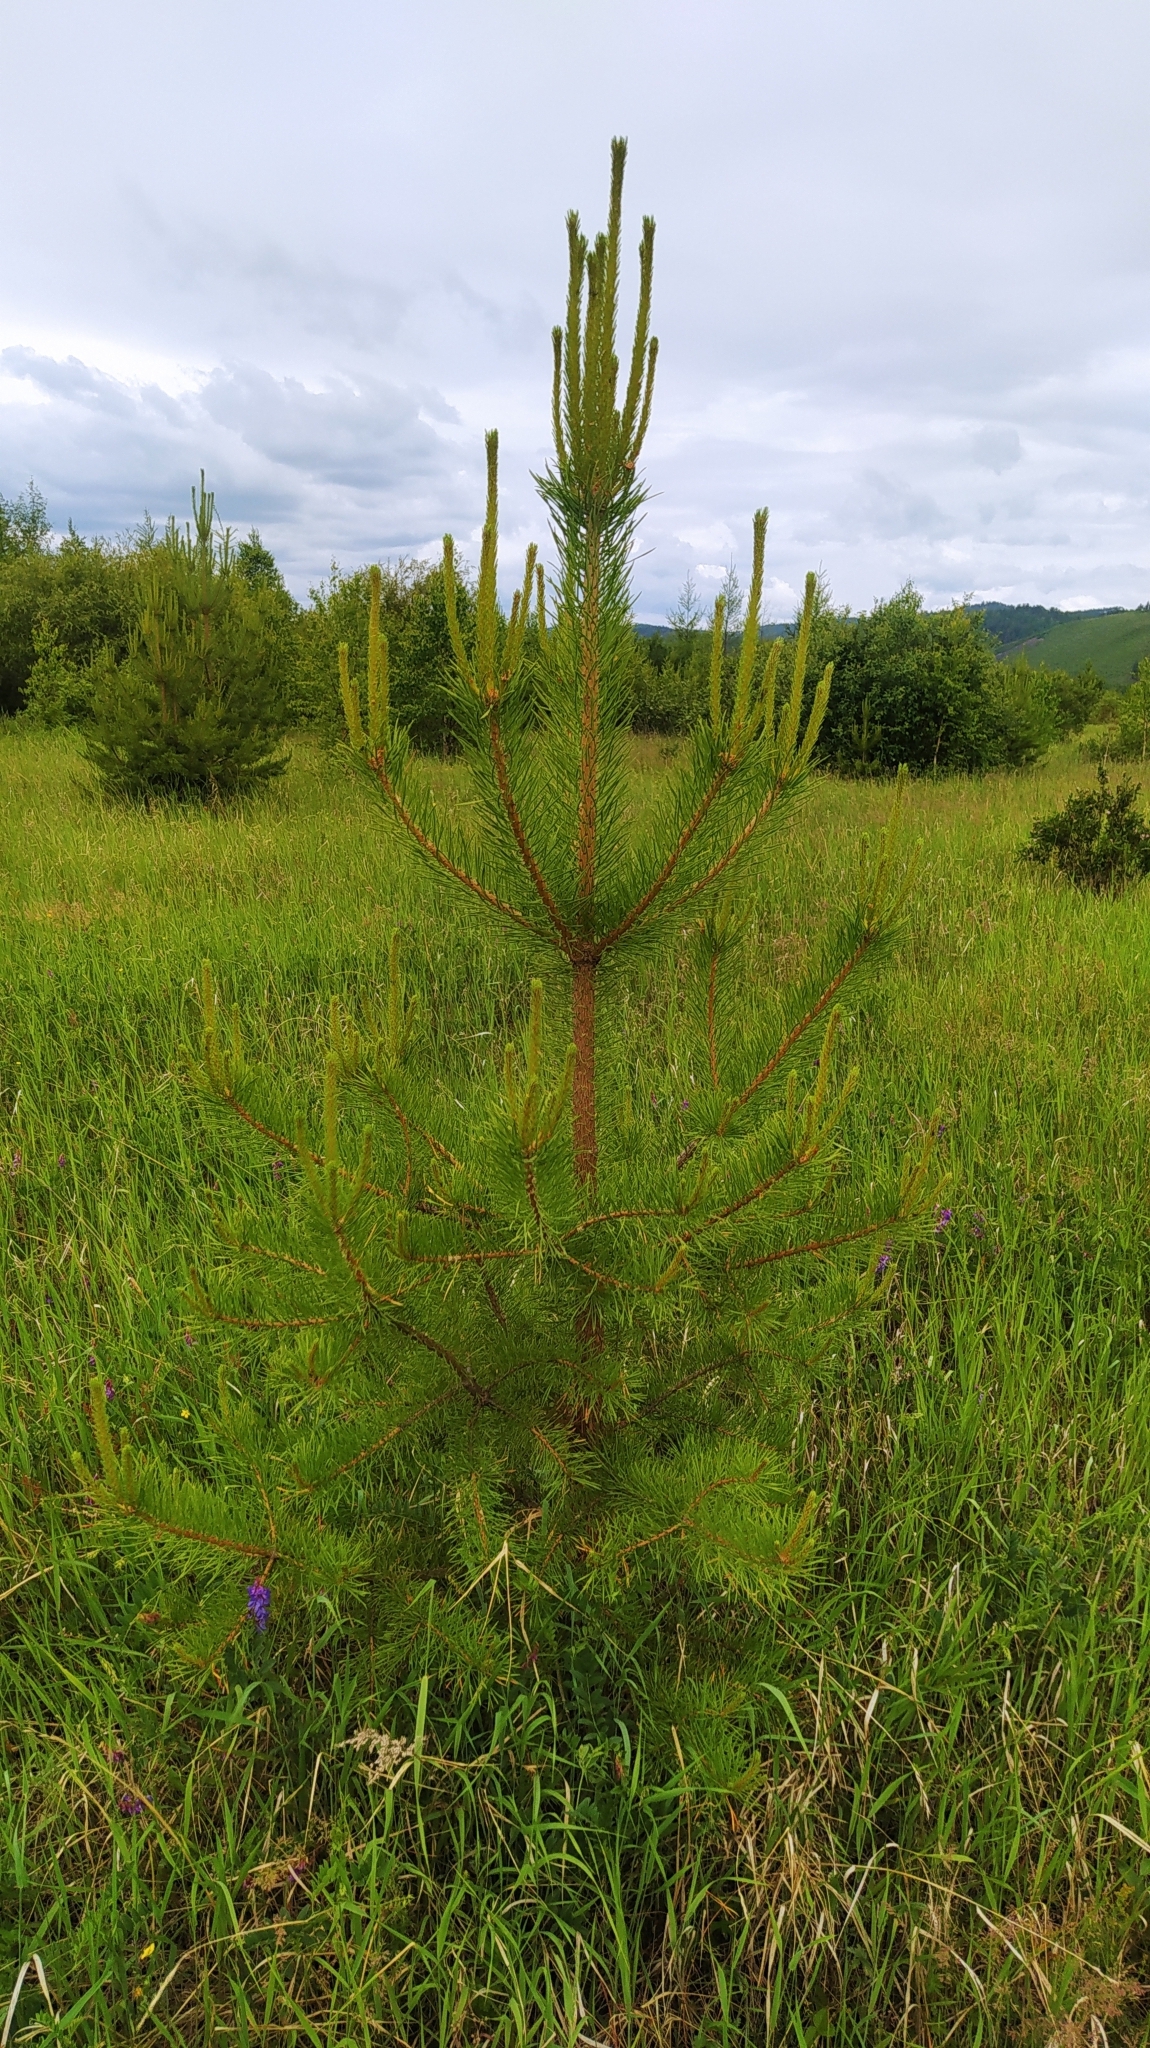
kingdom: Plantae
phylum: Tracheophyta
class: Pinopsida
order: Pinales
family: Pinaceae
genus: Pinus
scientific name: Pinus sylvestris
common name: Scots pine
